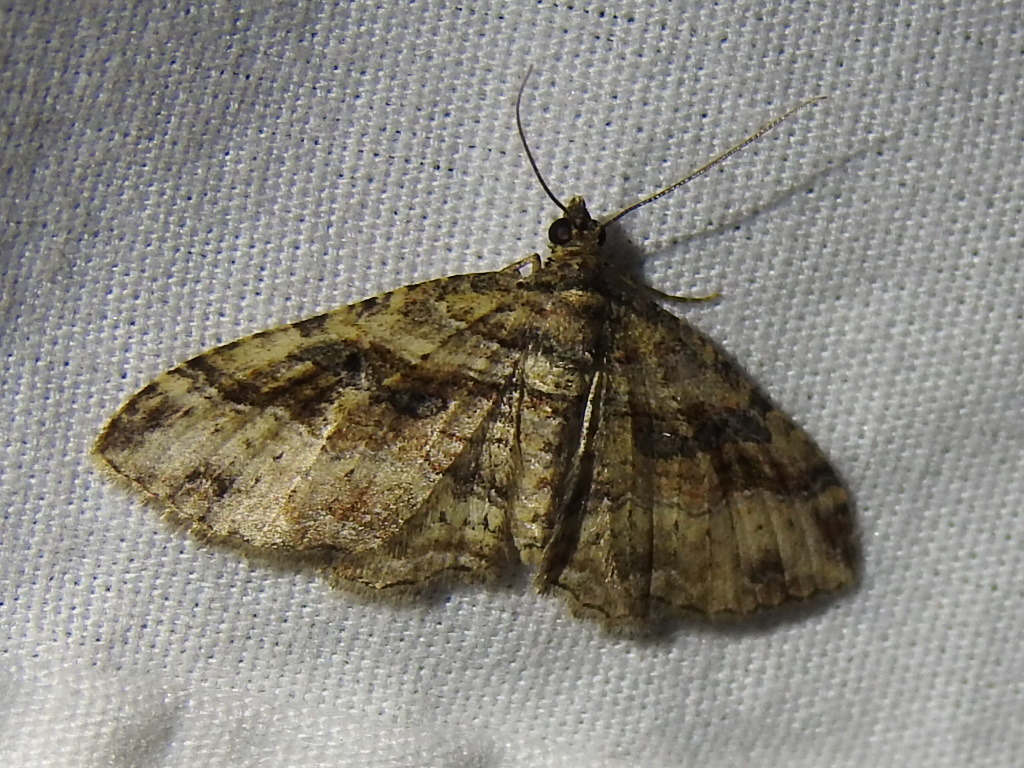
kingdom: Animalia
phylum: Arthropoda
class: Insecta
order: Lepidoptera
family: Geometridae
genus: Costaconvexa
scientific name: Costaconvexa centrostrigaria
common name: Bent-line carpet
